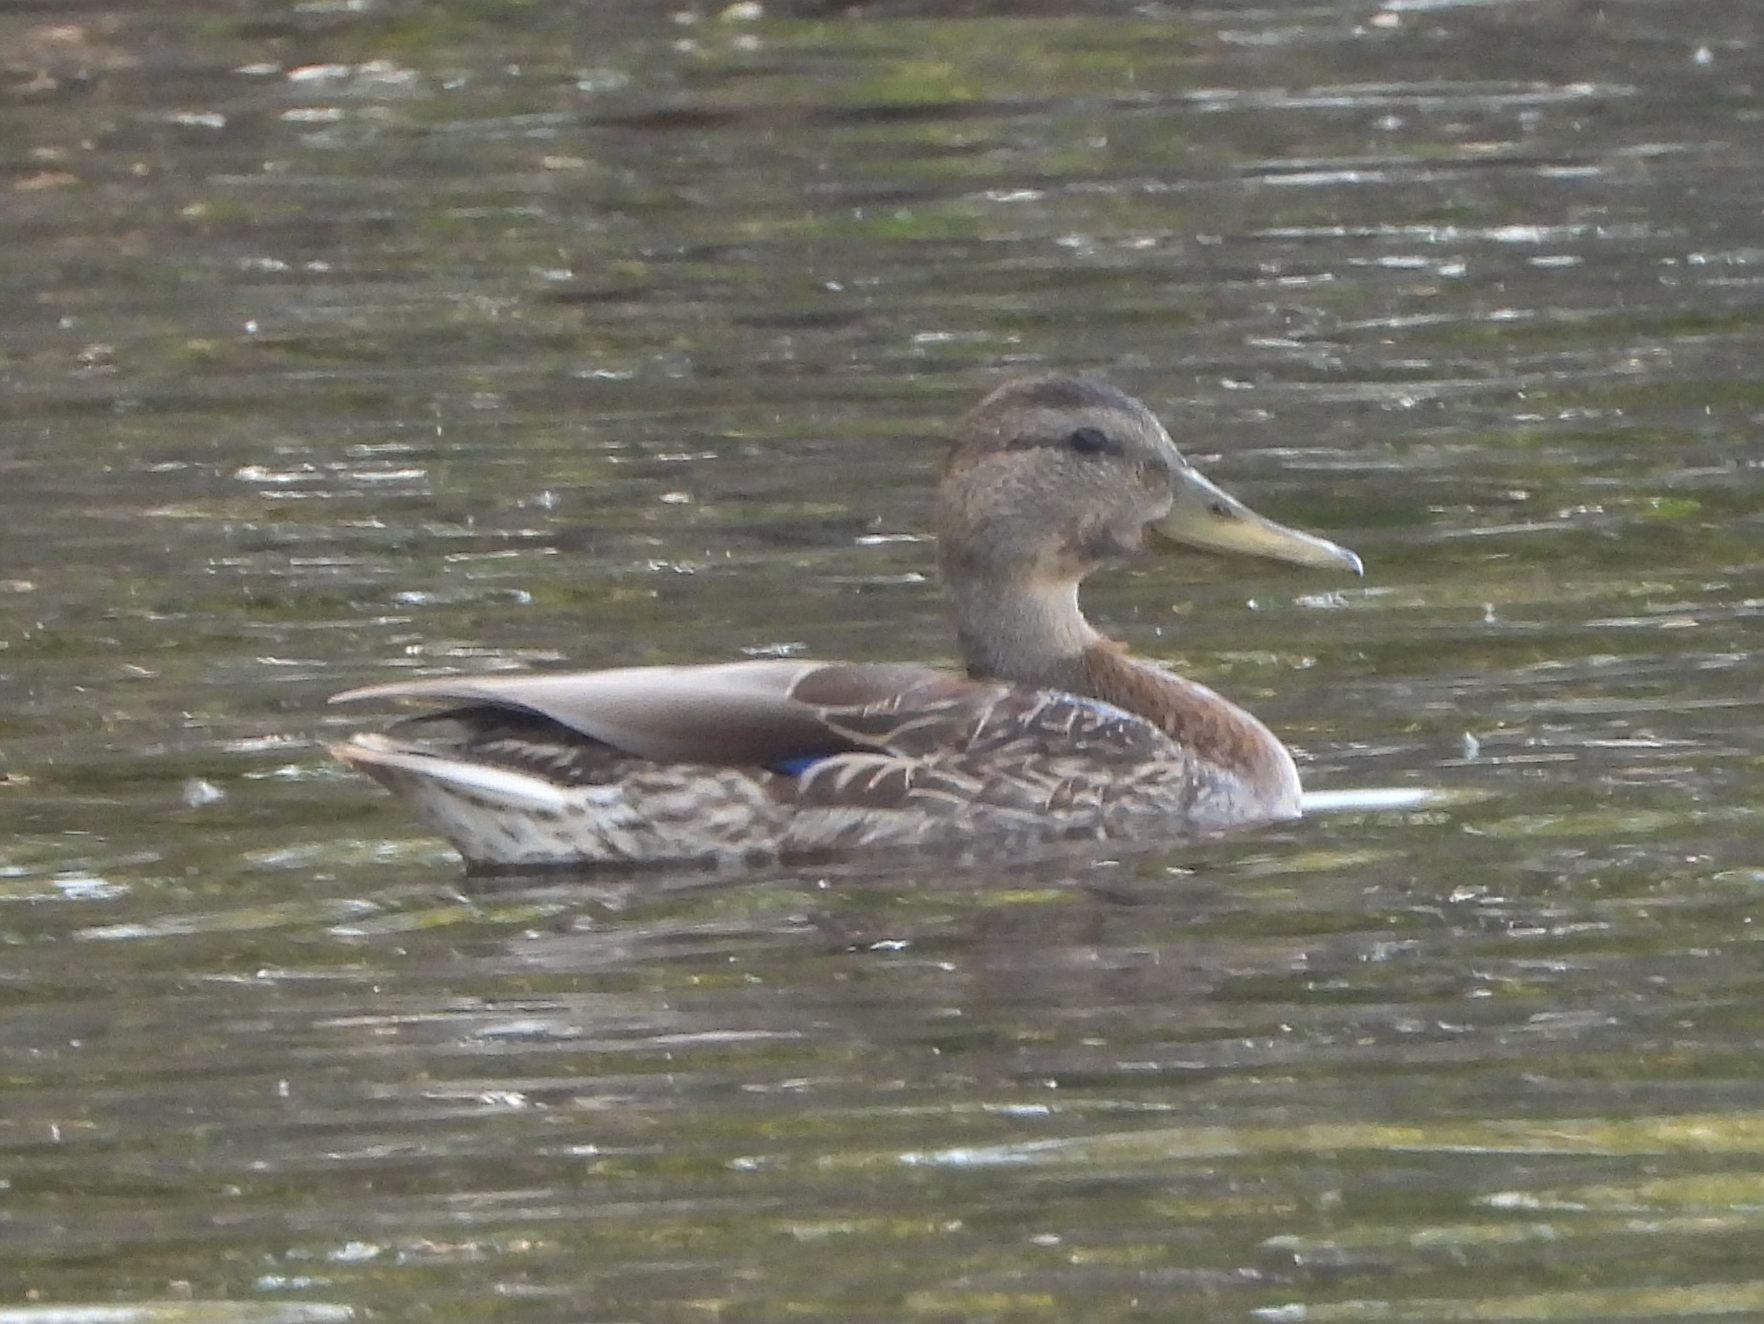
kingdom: Animalia
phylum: Chordata
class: Aves
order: Anseriformes
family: Anatidae
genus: Anas
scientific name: Anas platyrhynchos
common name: Mallard
